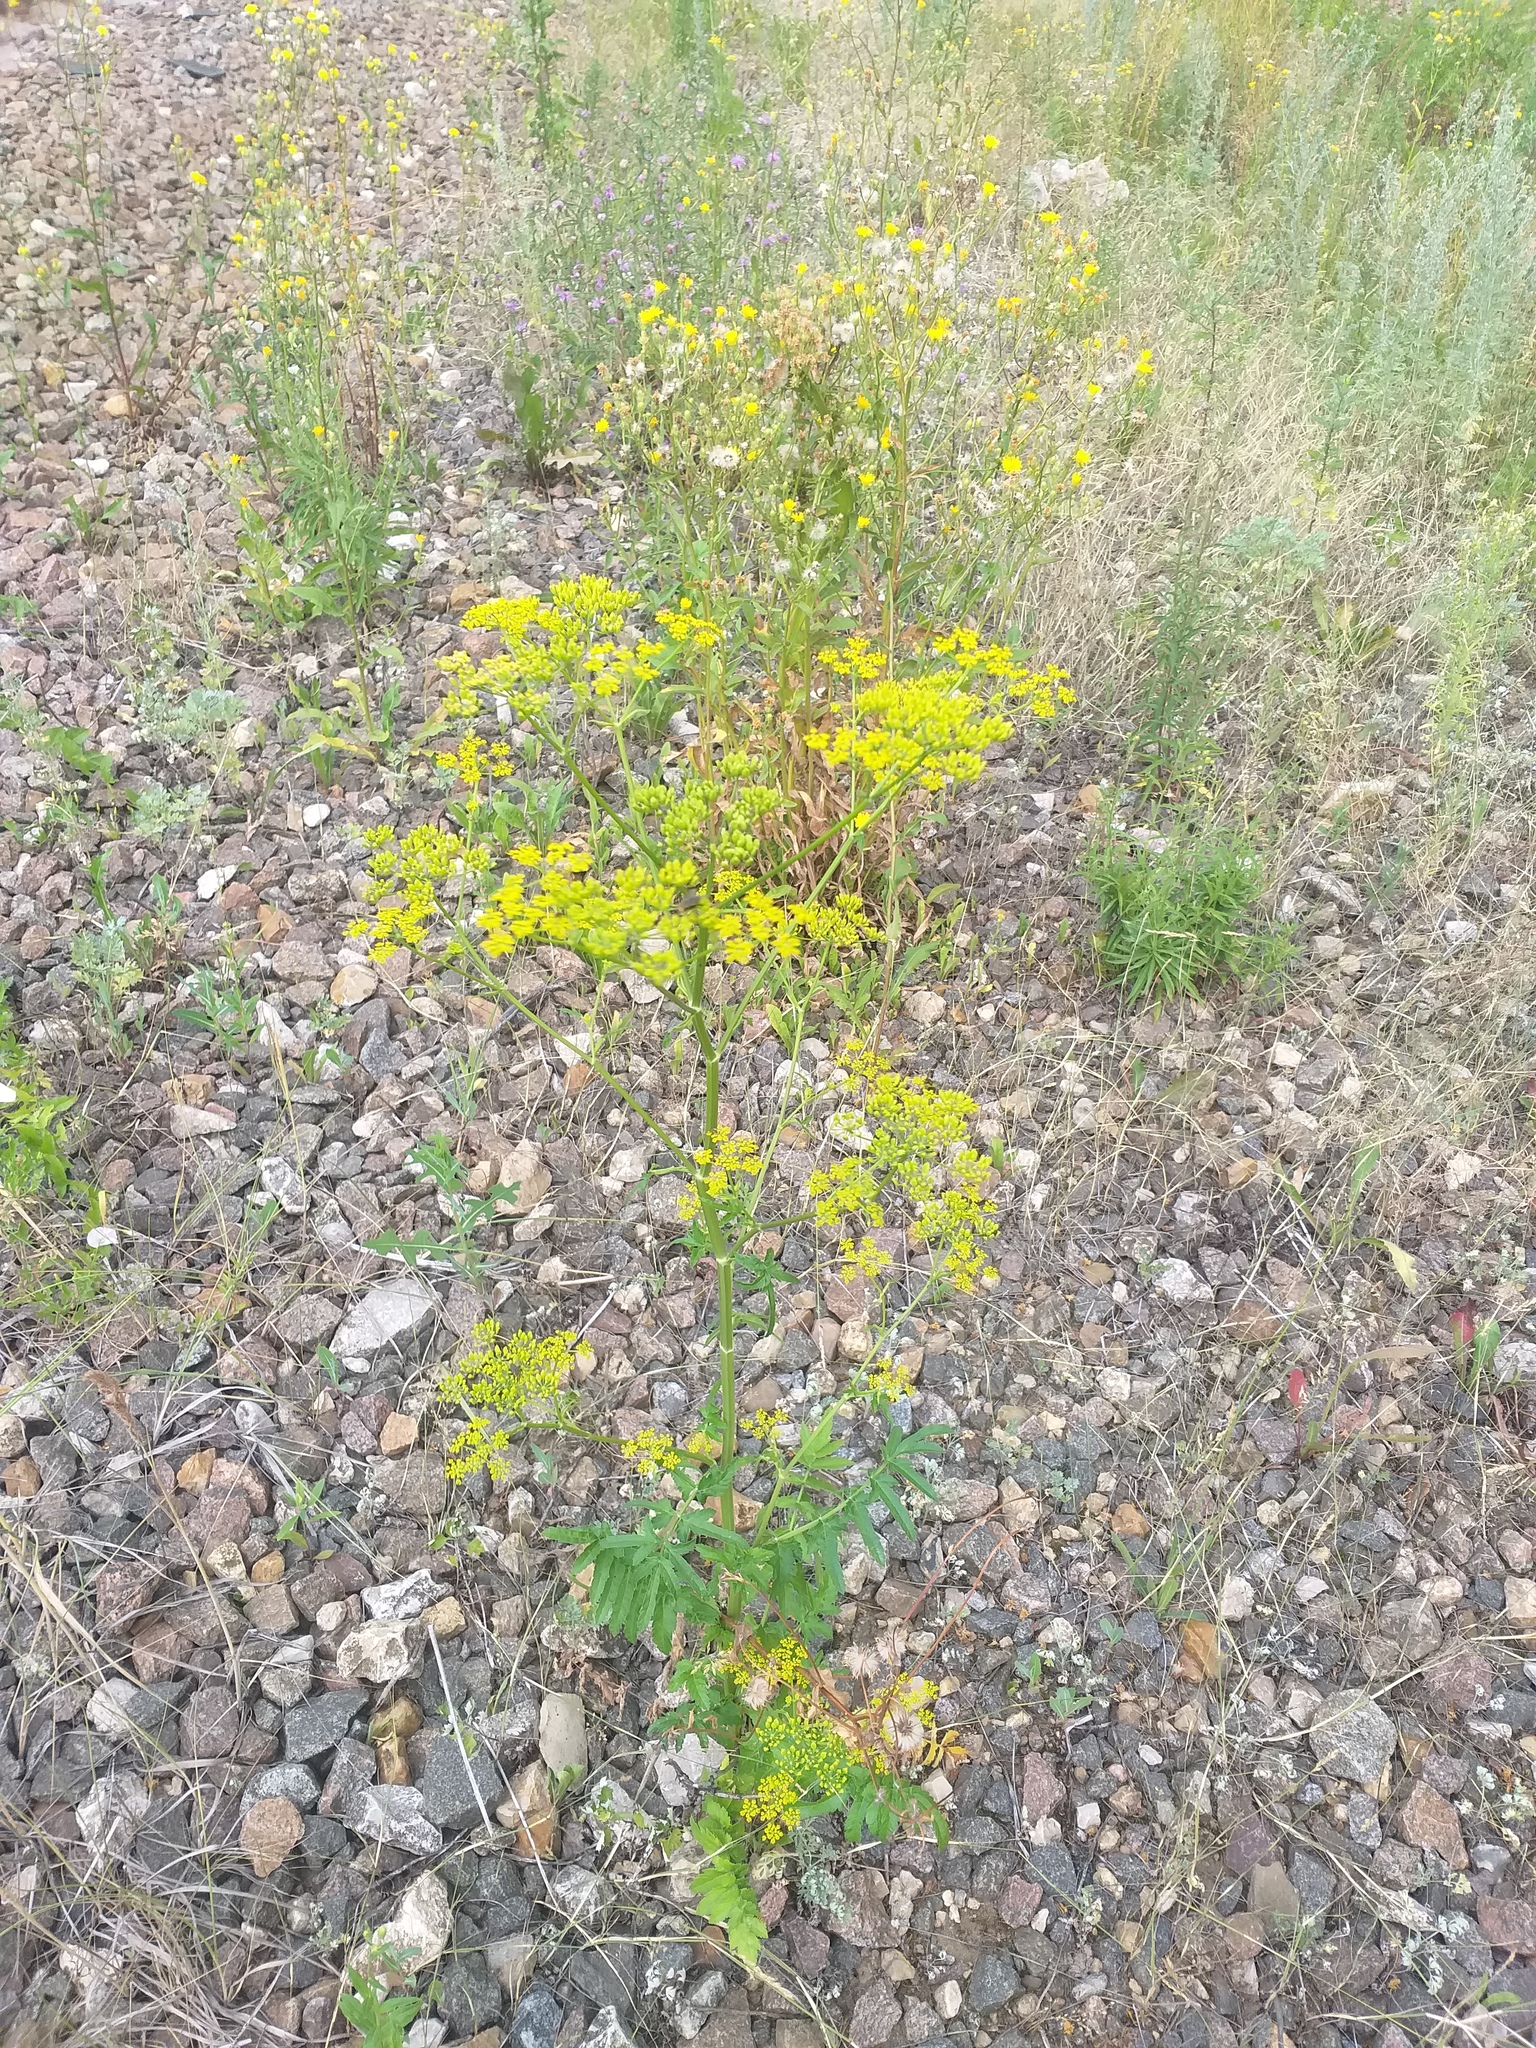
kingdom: Plantae
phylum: Tracheophyta
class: Magnoliopsida
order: Apiales
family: Apiaceae
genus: Pastinaca
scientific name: Pastinaca sativa
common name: Wild parsnip
